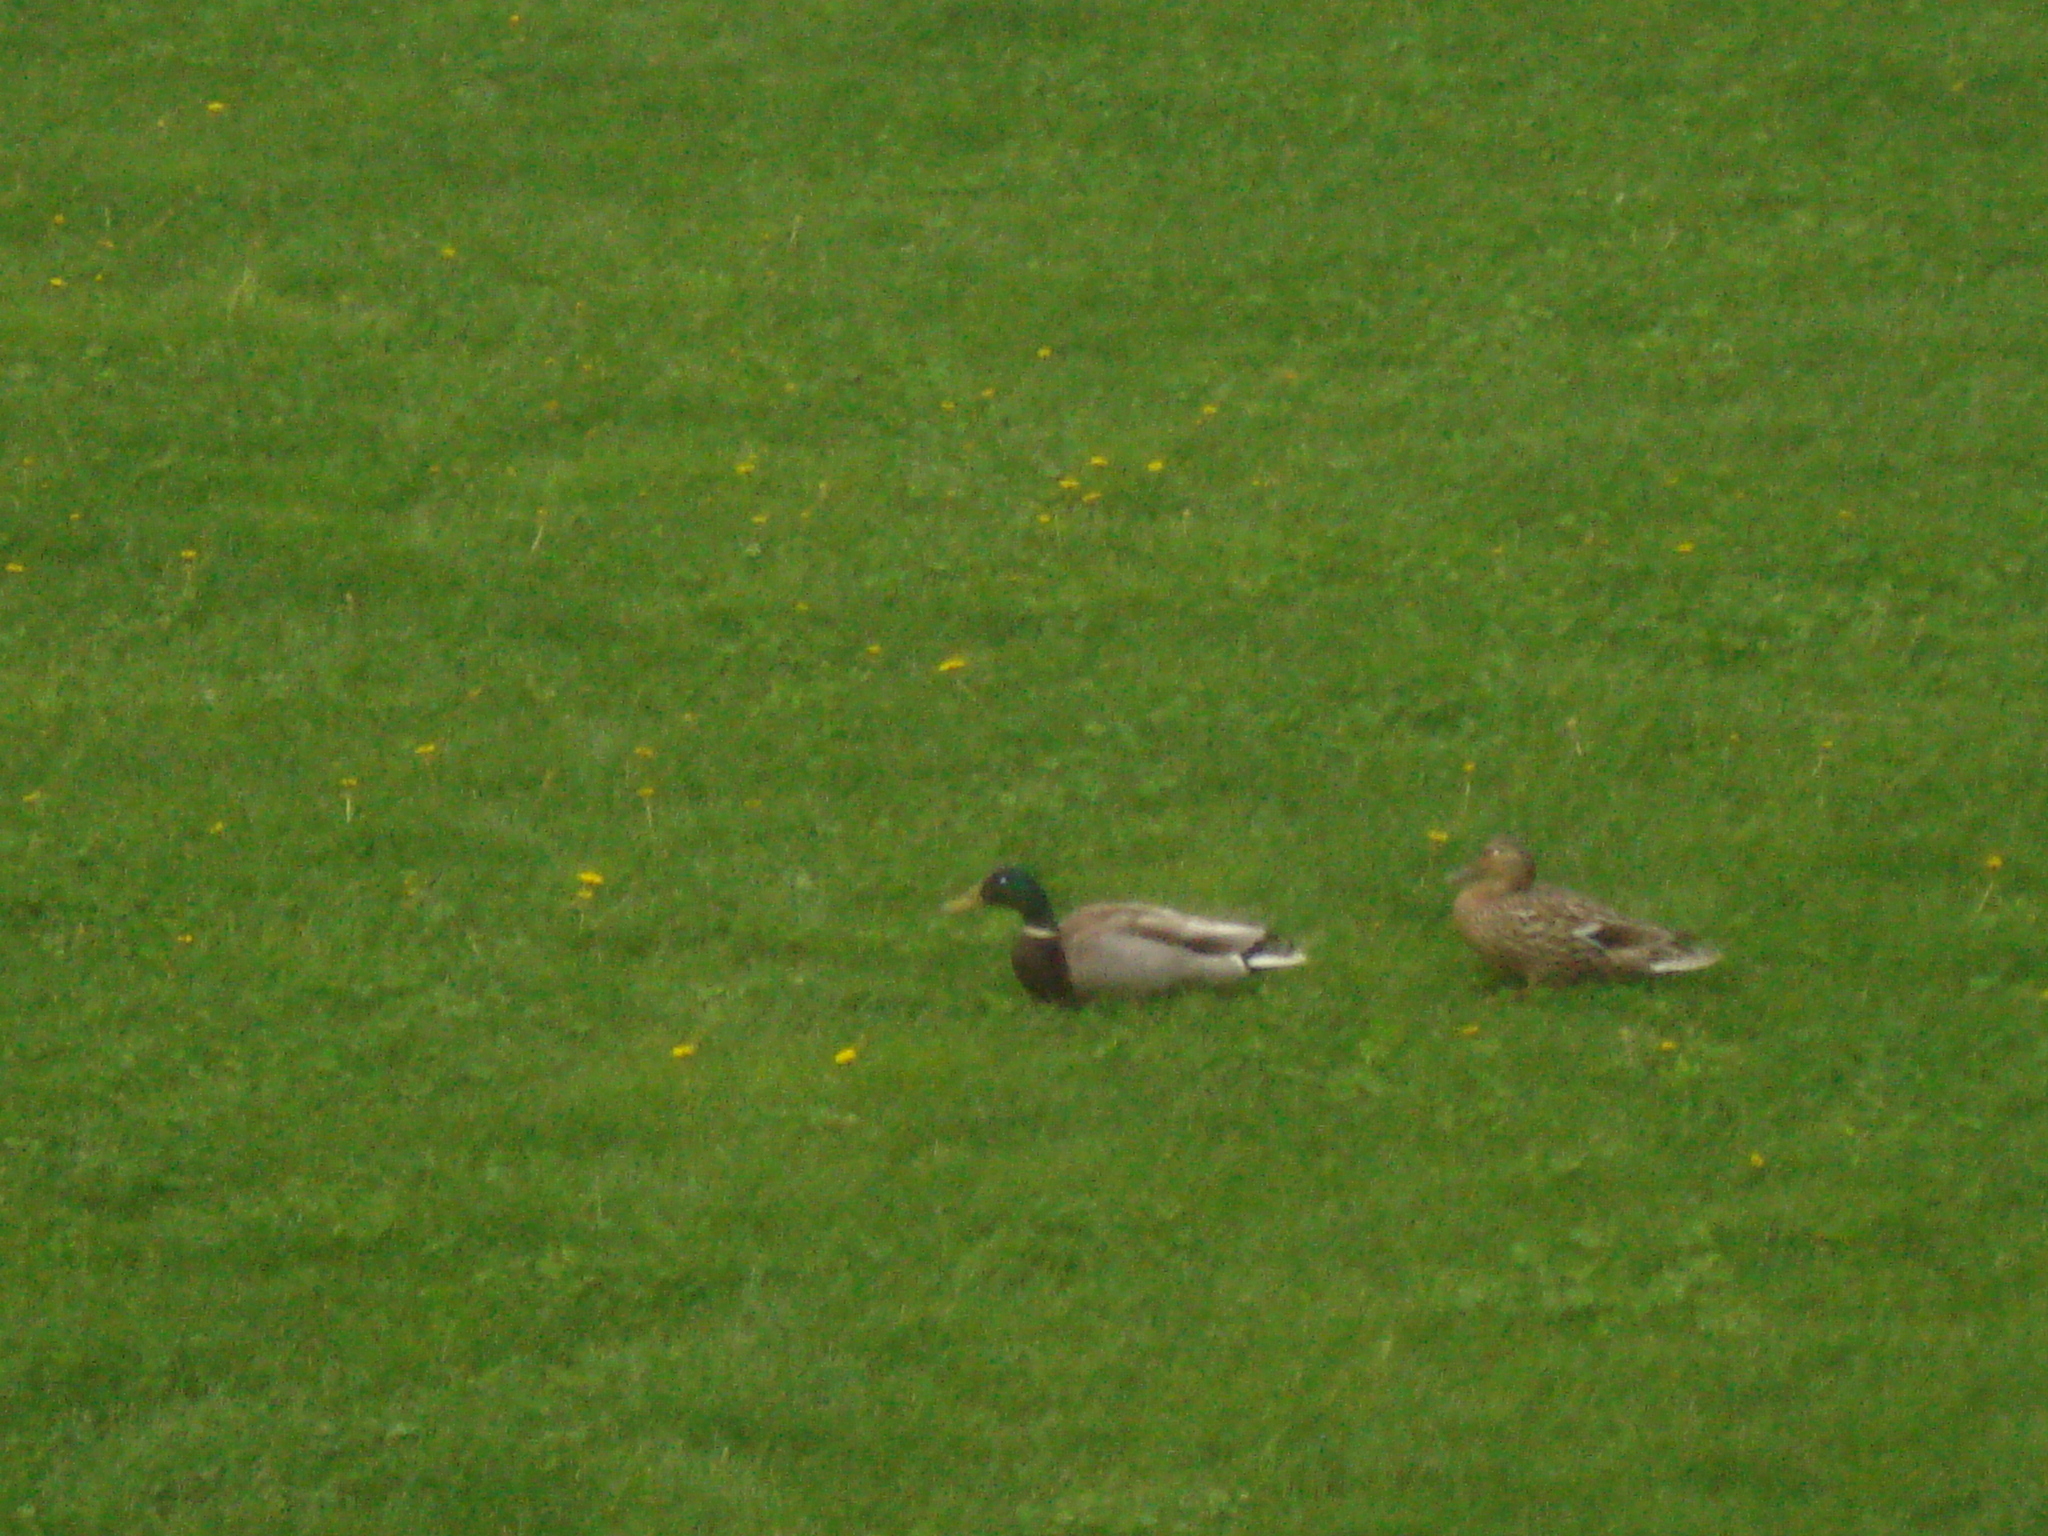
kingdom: Animalia
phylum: Chordata
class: Aves
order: Anseriformes
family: Anatidae
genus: Anas
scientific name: Anas platyrhynchos
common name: Mallard
